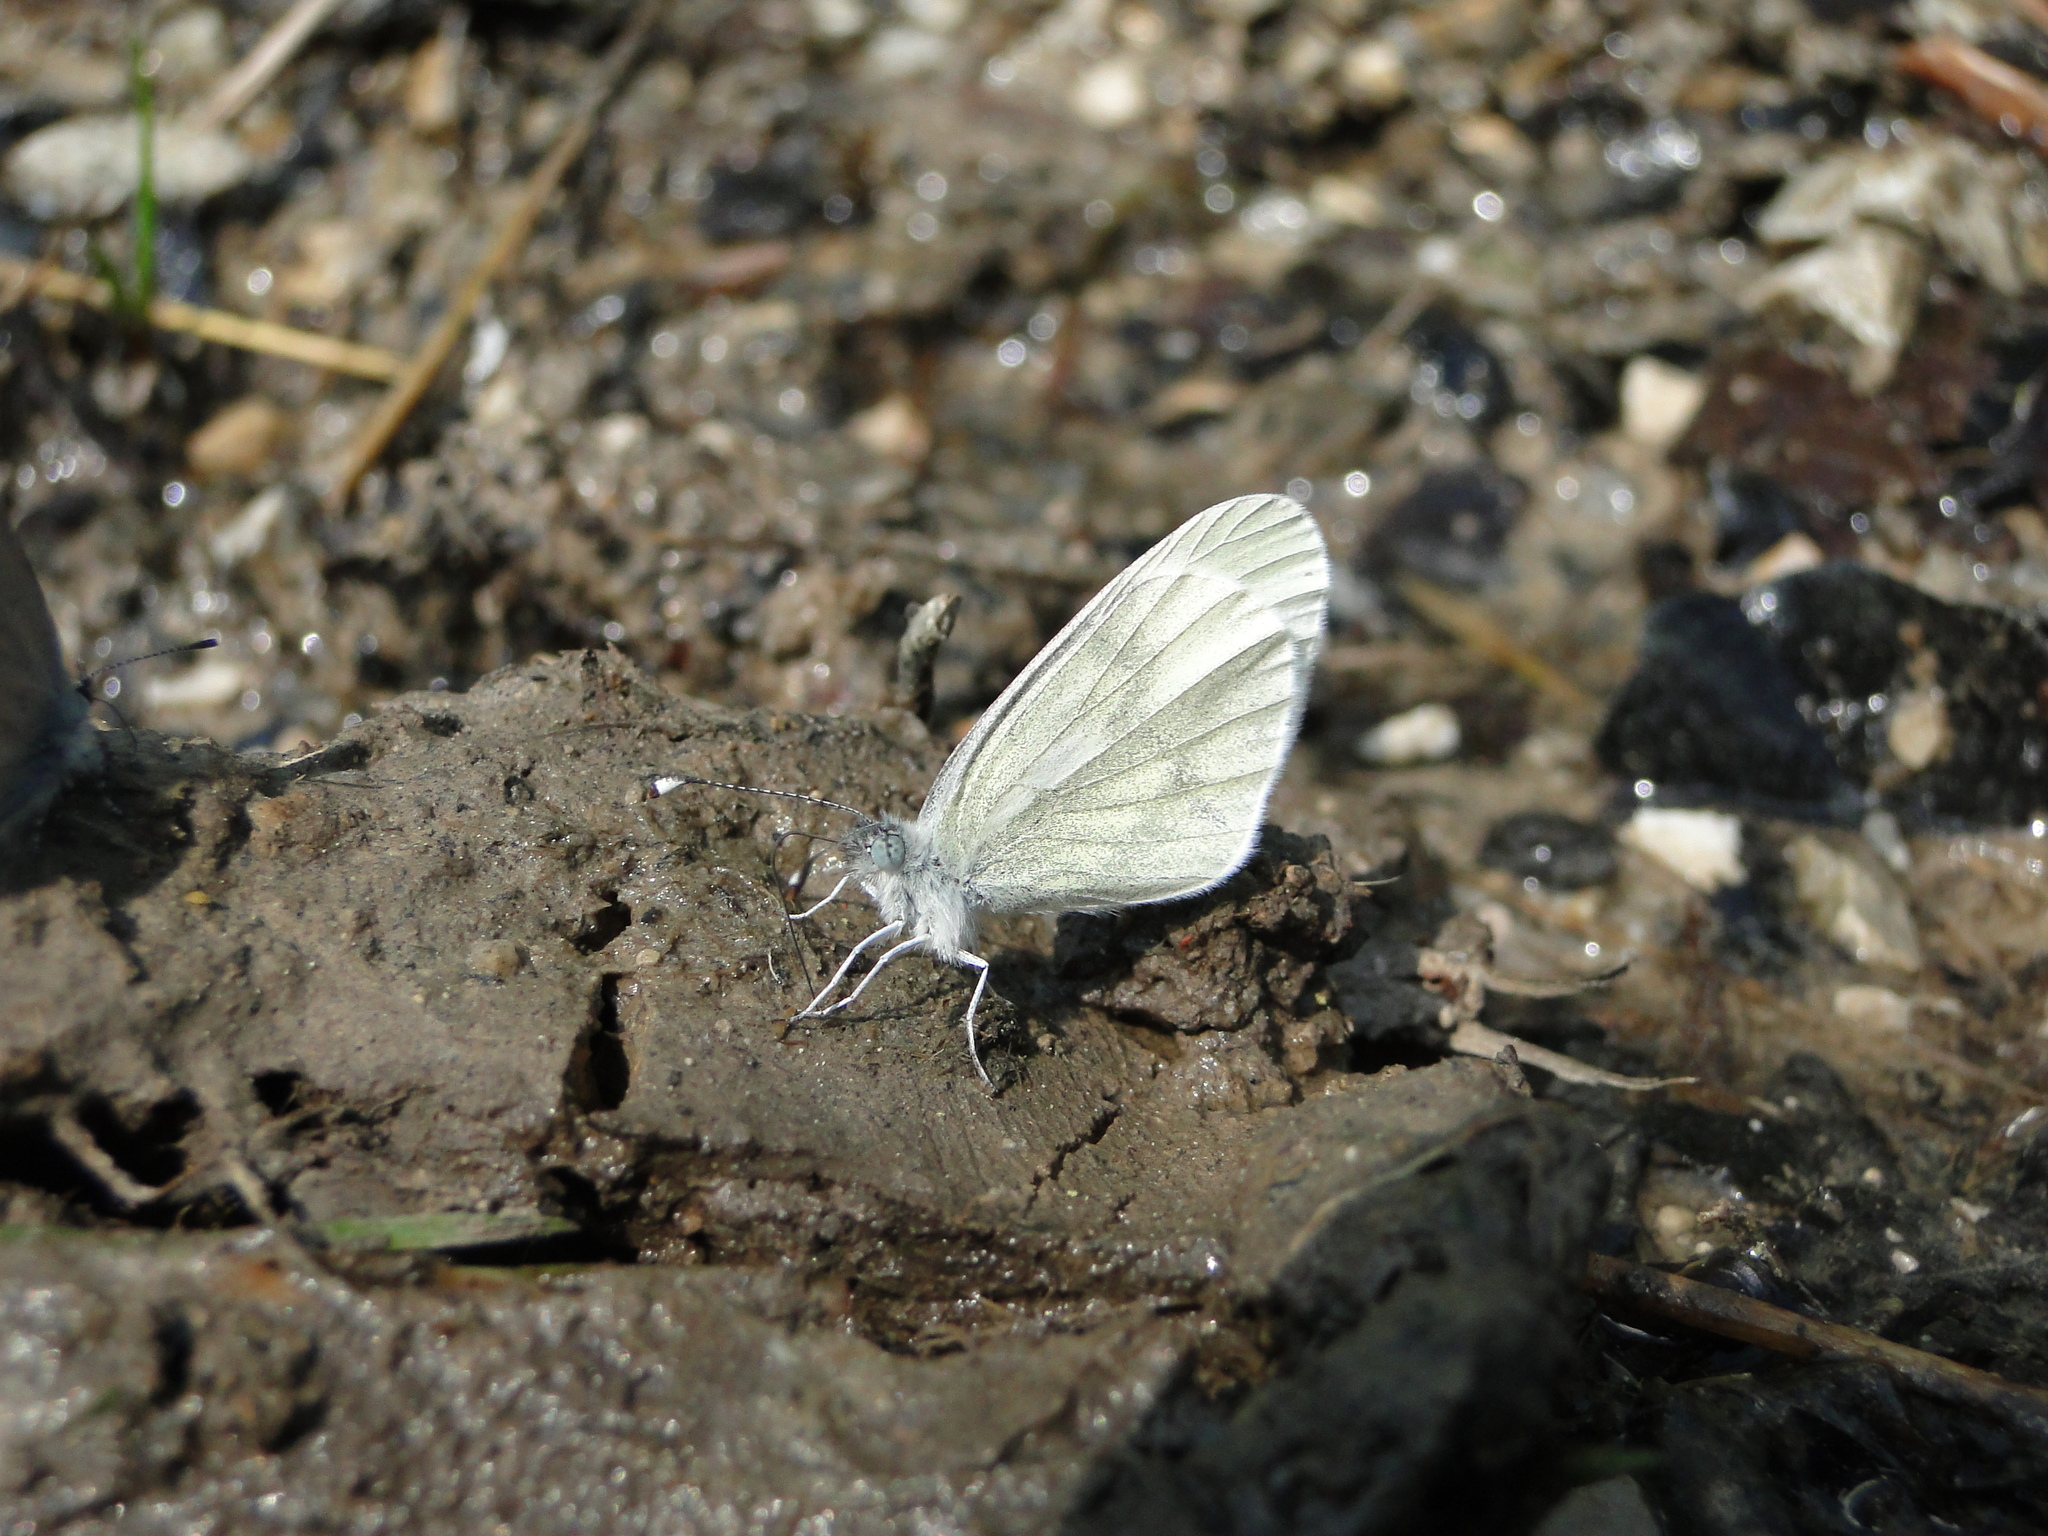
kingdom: Animalia
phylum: Arthropoda
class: Insecta
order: Lepidoptera
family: Pieridae
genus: Leptidea
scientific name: Leptidea
